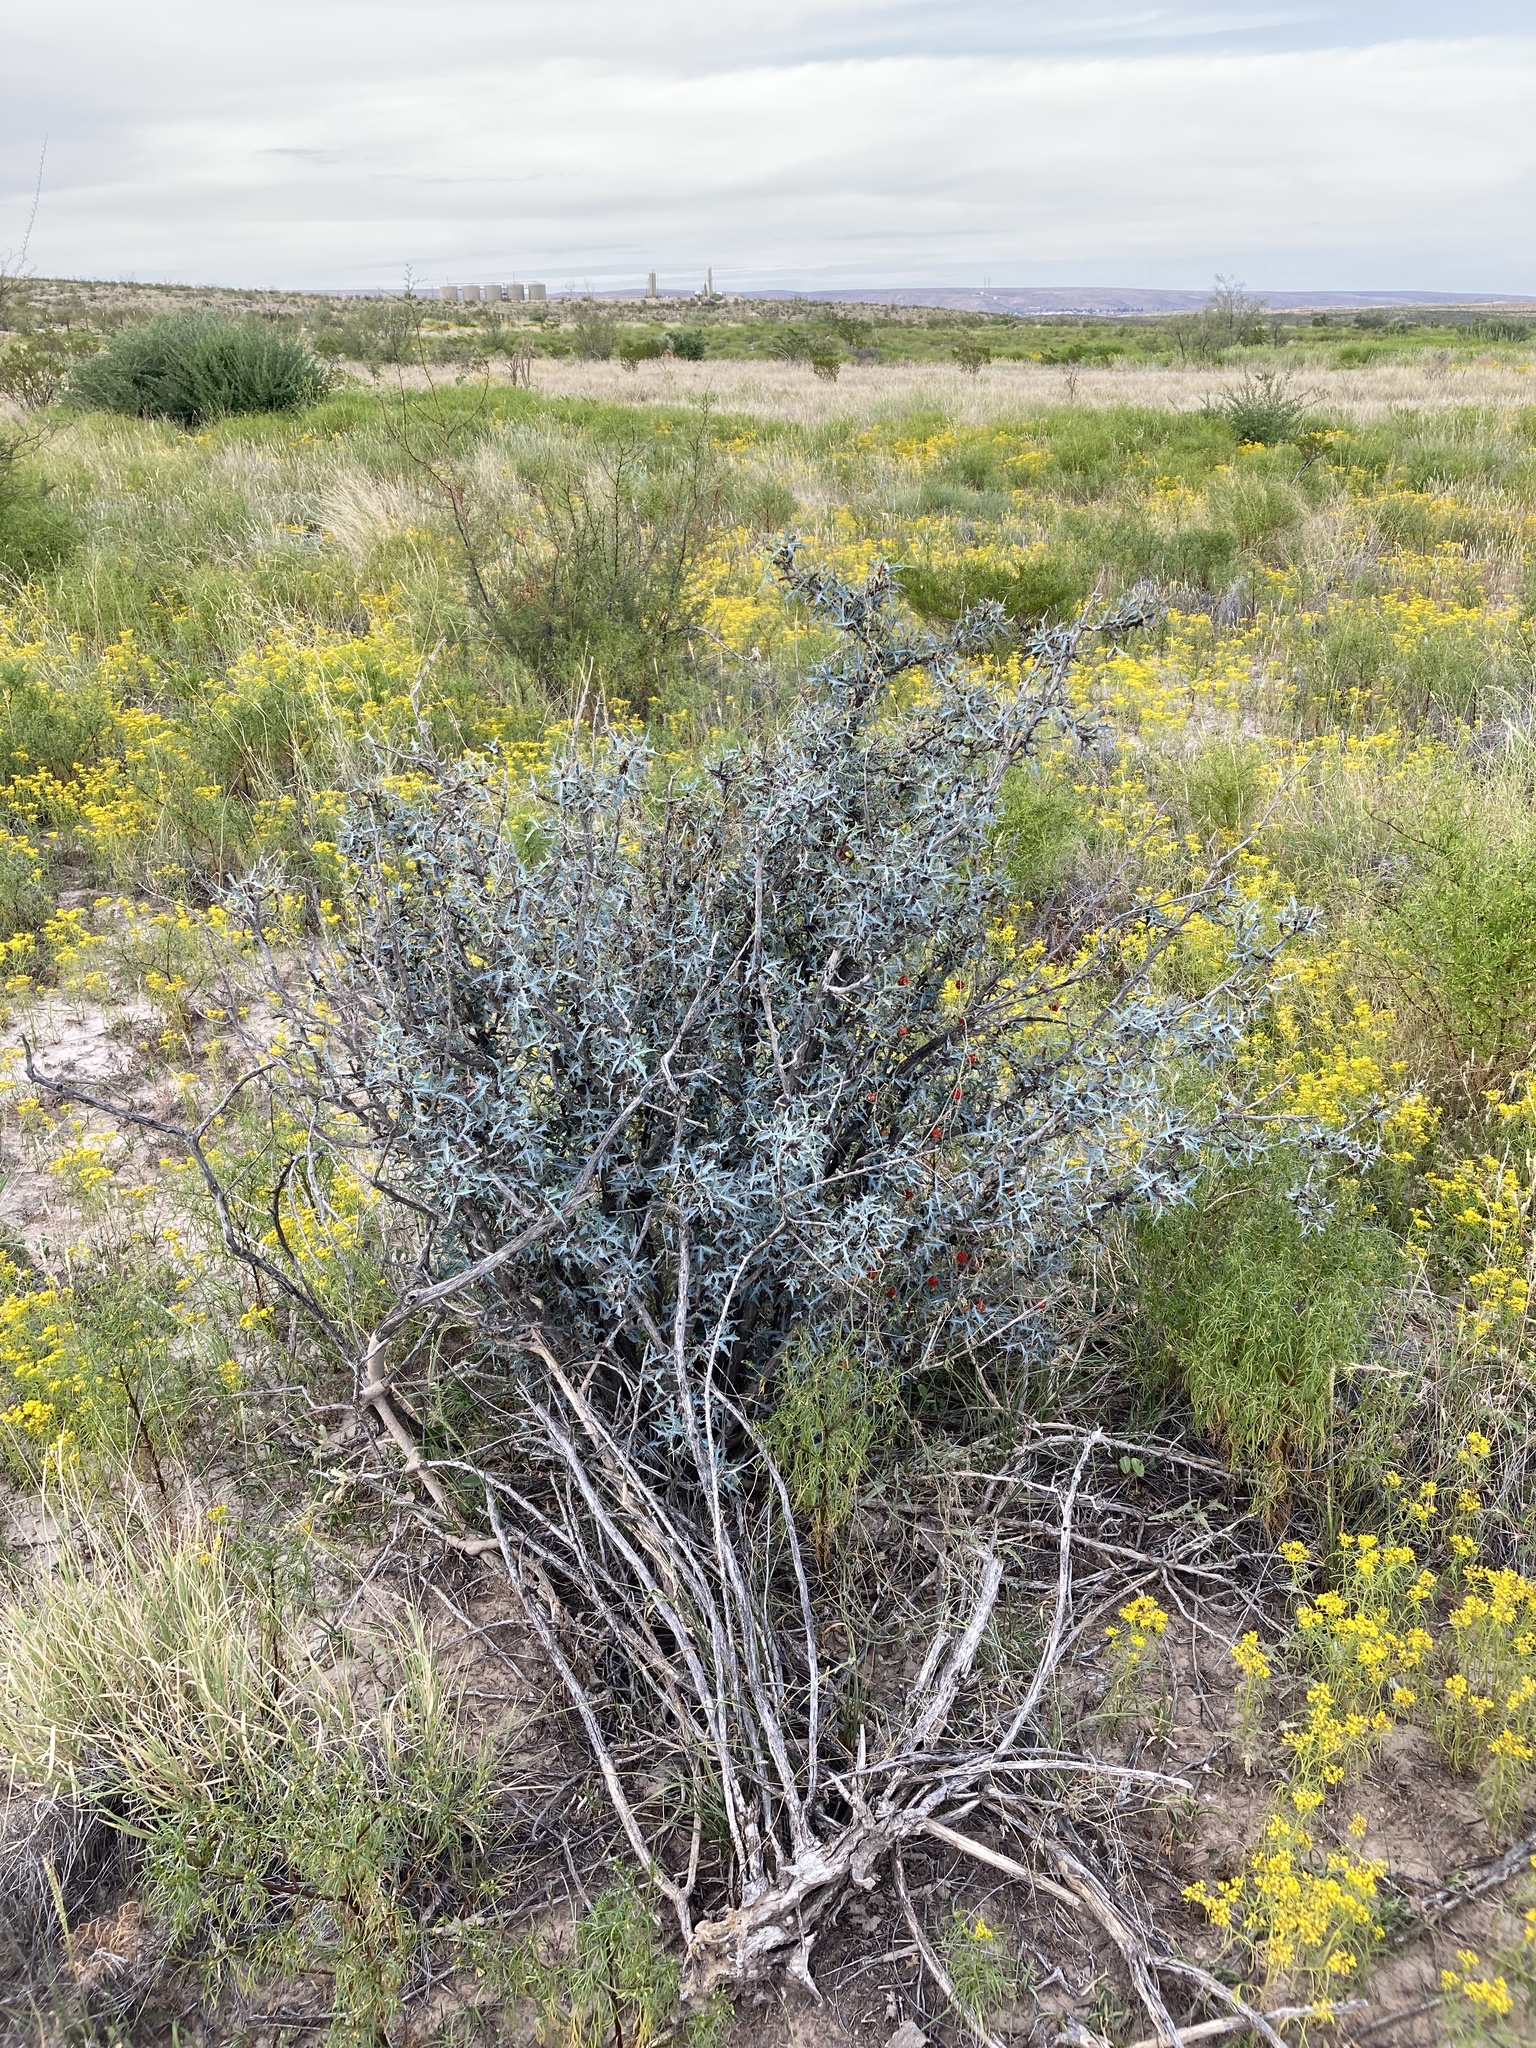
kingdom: Plantae
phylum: Tracheophyta
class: Magnoliopsida
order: Ranunculales
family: Berberidaceae
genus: Alloberberis
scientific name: Alloberberis trifoliolata
